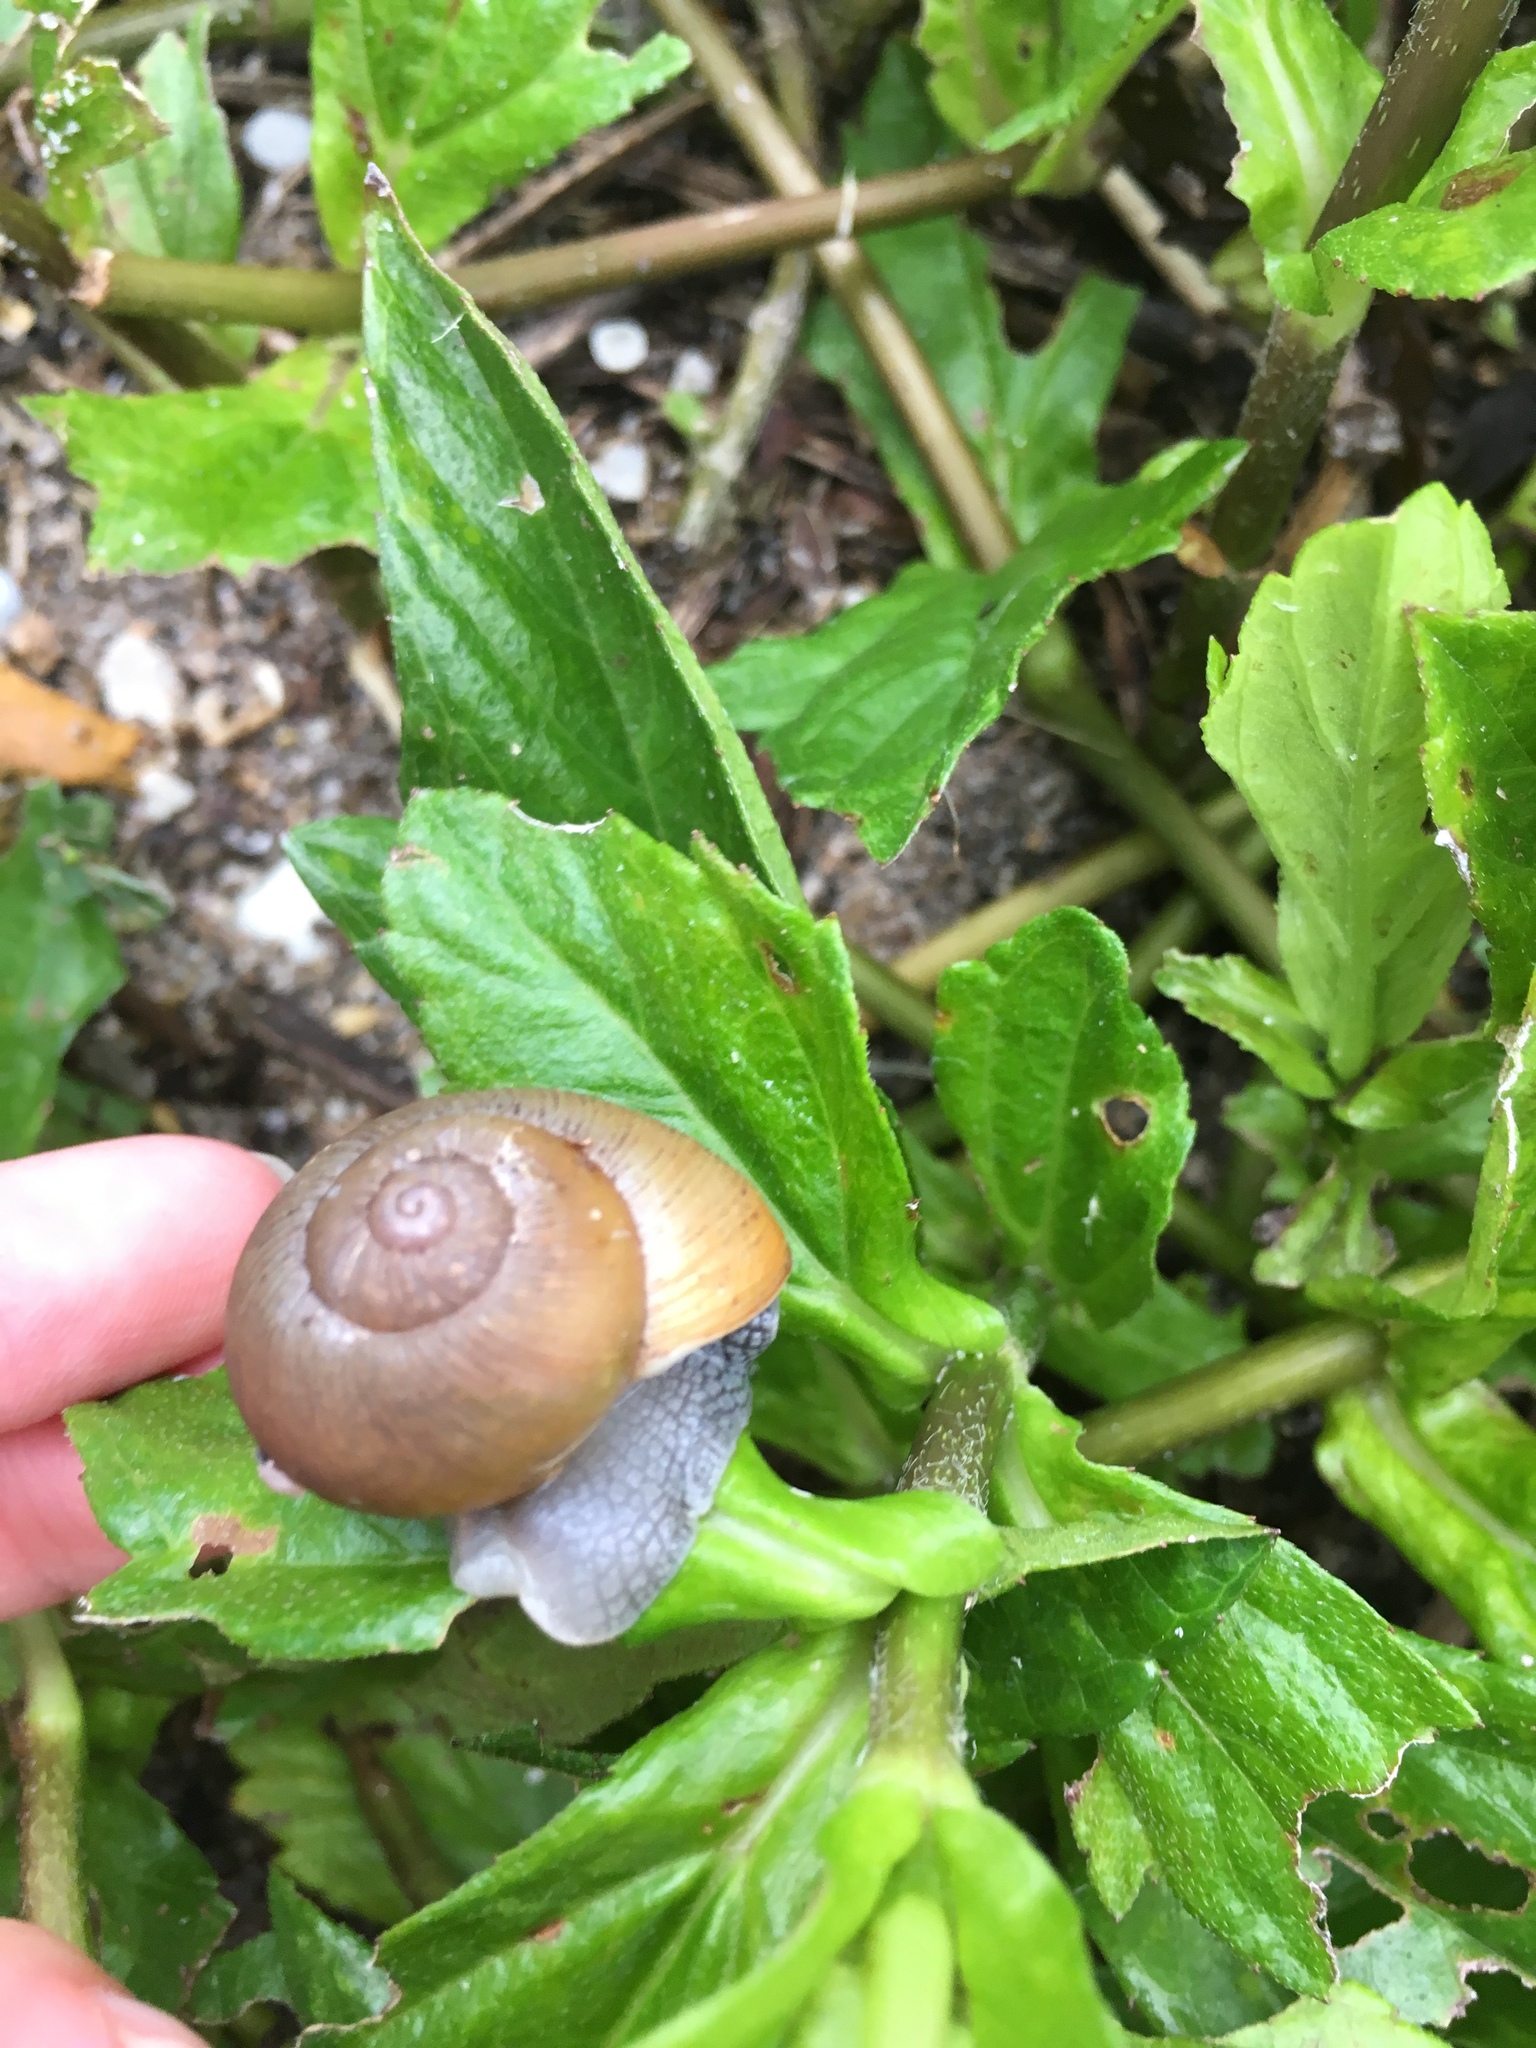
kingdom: Animalia
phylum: Mollusca
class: Gastropoda
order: Stylommatophora
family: Zachrysiidae
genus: Zachrysia
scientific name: Zachrysia provisoria
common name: Garden zachrysia
